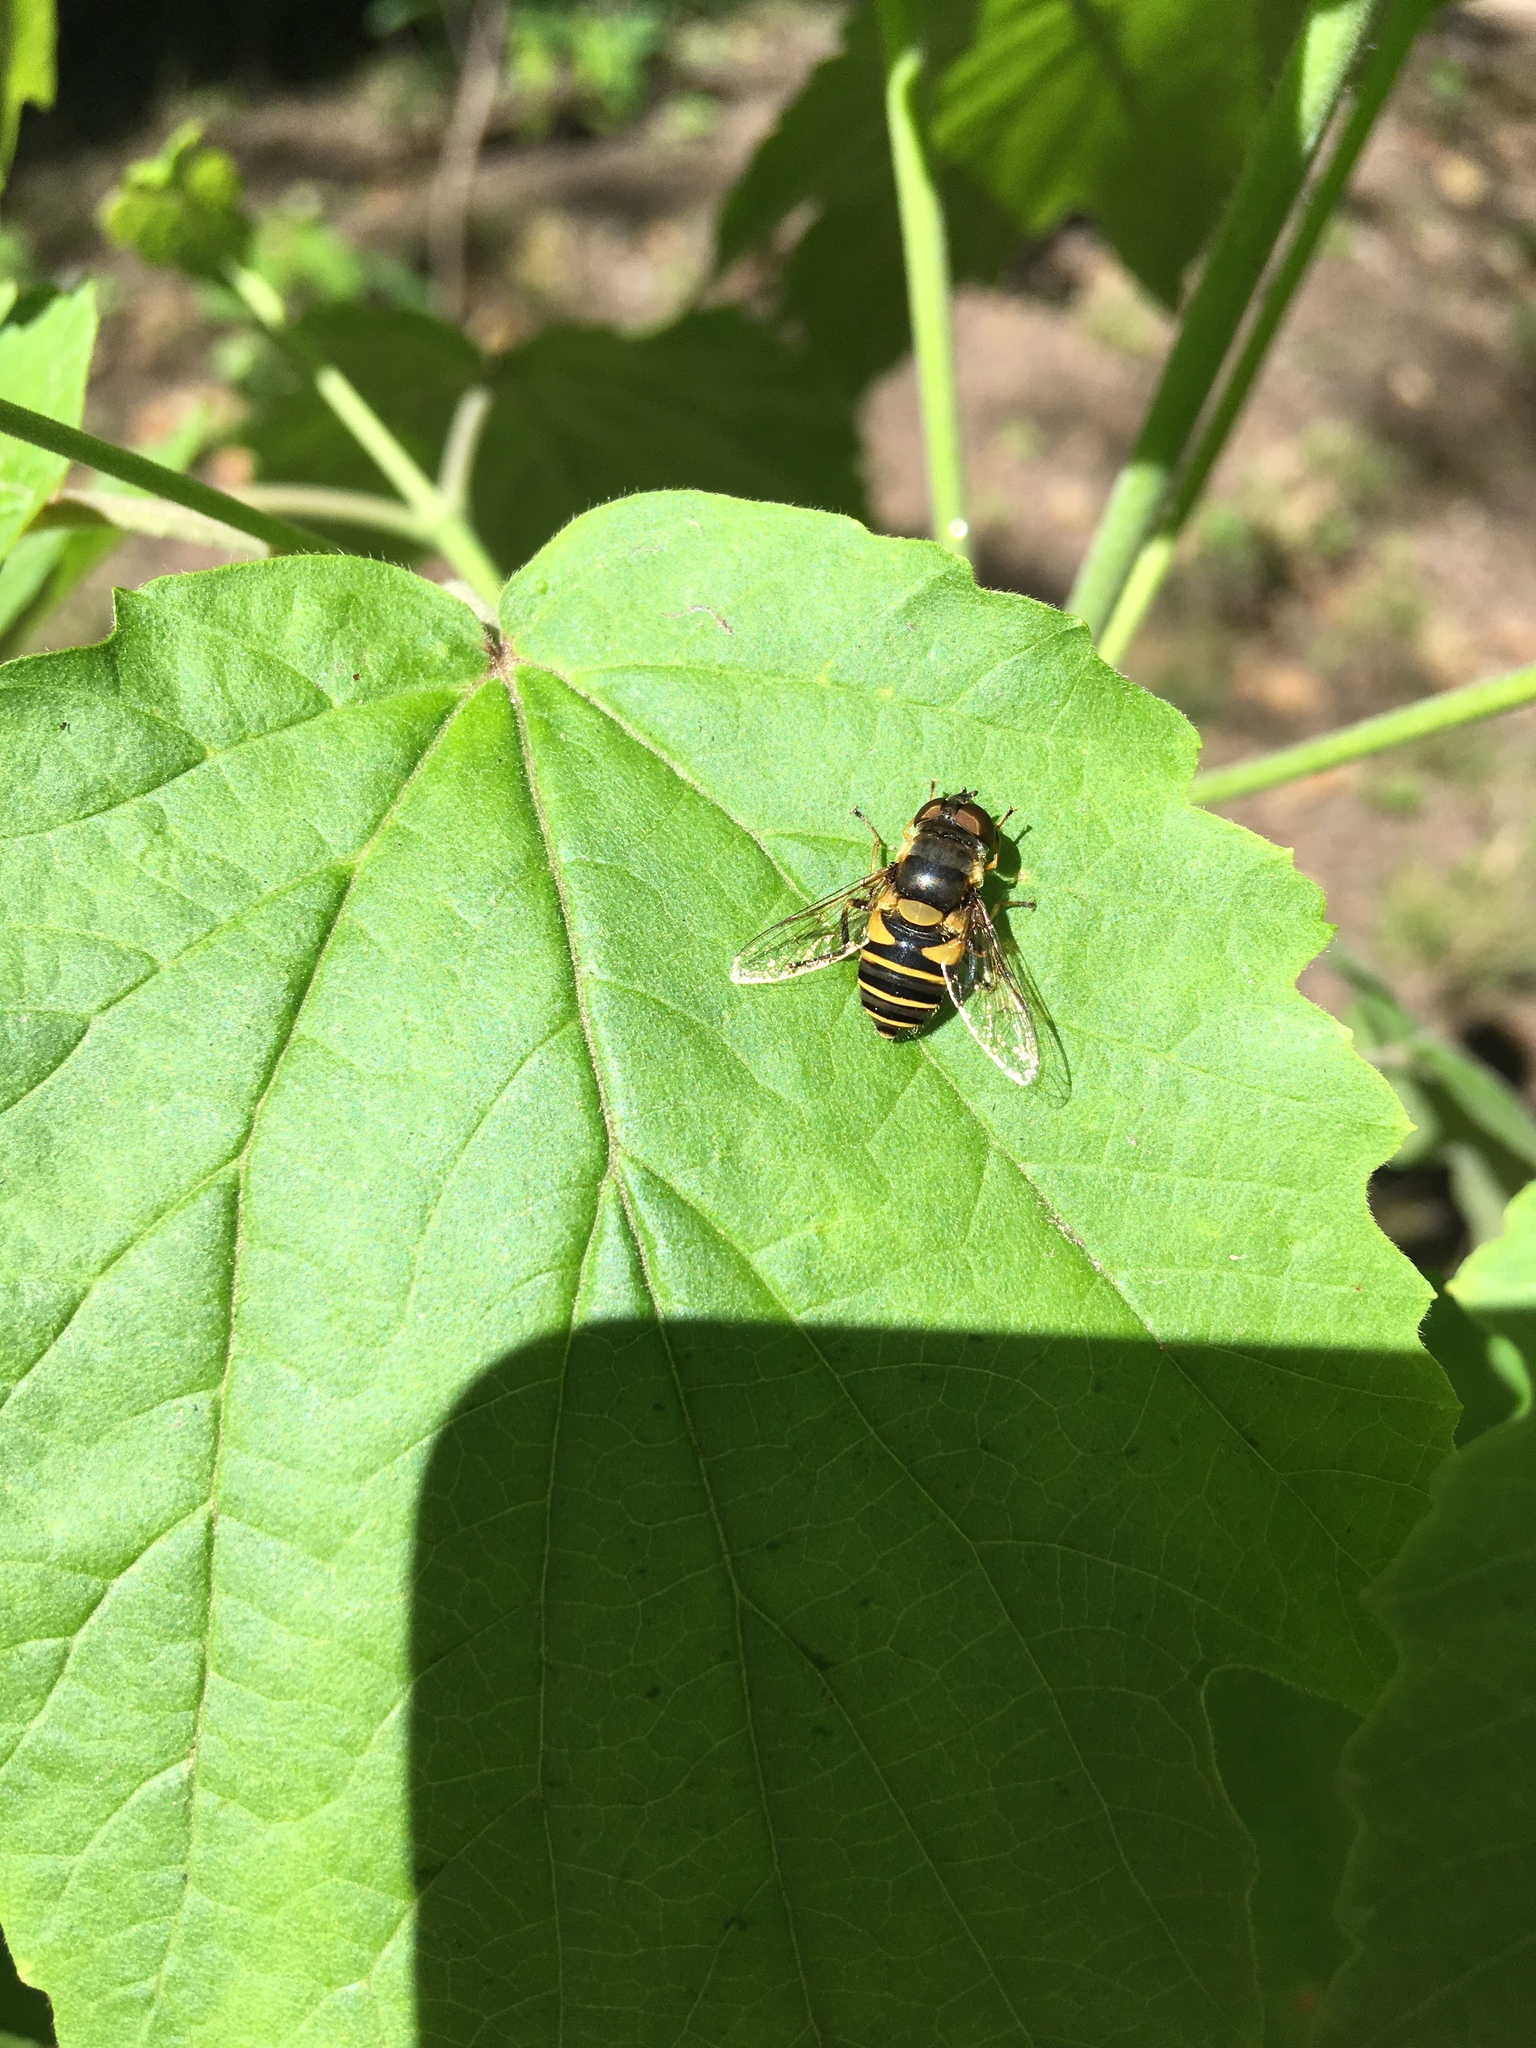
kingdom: Animalia
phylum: Arthropoda
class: Insecta
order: Diptera
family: Syrphidae
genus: Eristalis
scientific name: Eristalis transversa
